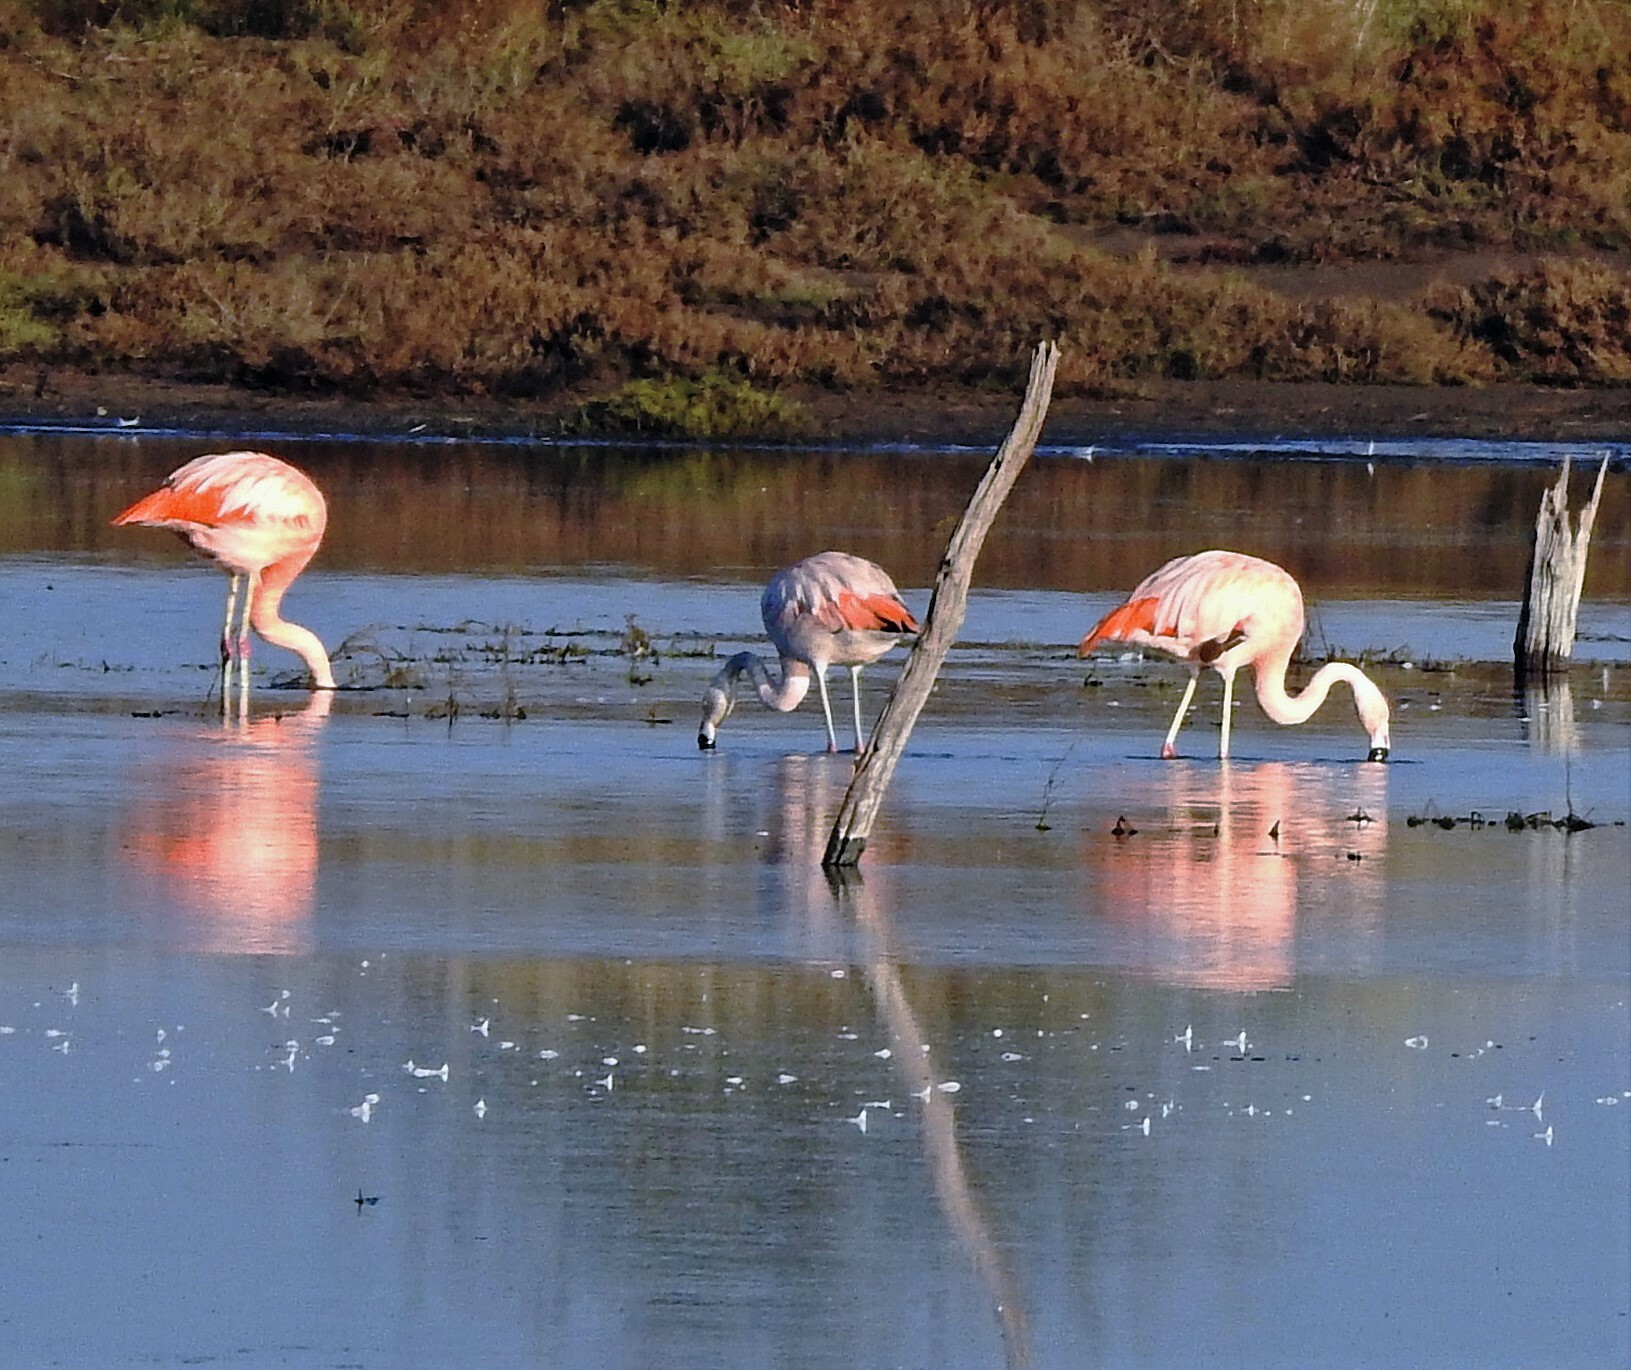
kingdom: Animalia
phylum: Chordata
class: Aves
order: Phoenicopteriformes
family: Phoenicopteridae
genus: Phoenicopterus
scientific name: Phoenicopterus chilensis
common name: Chilean flamingo
